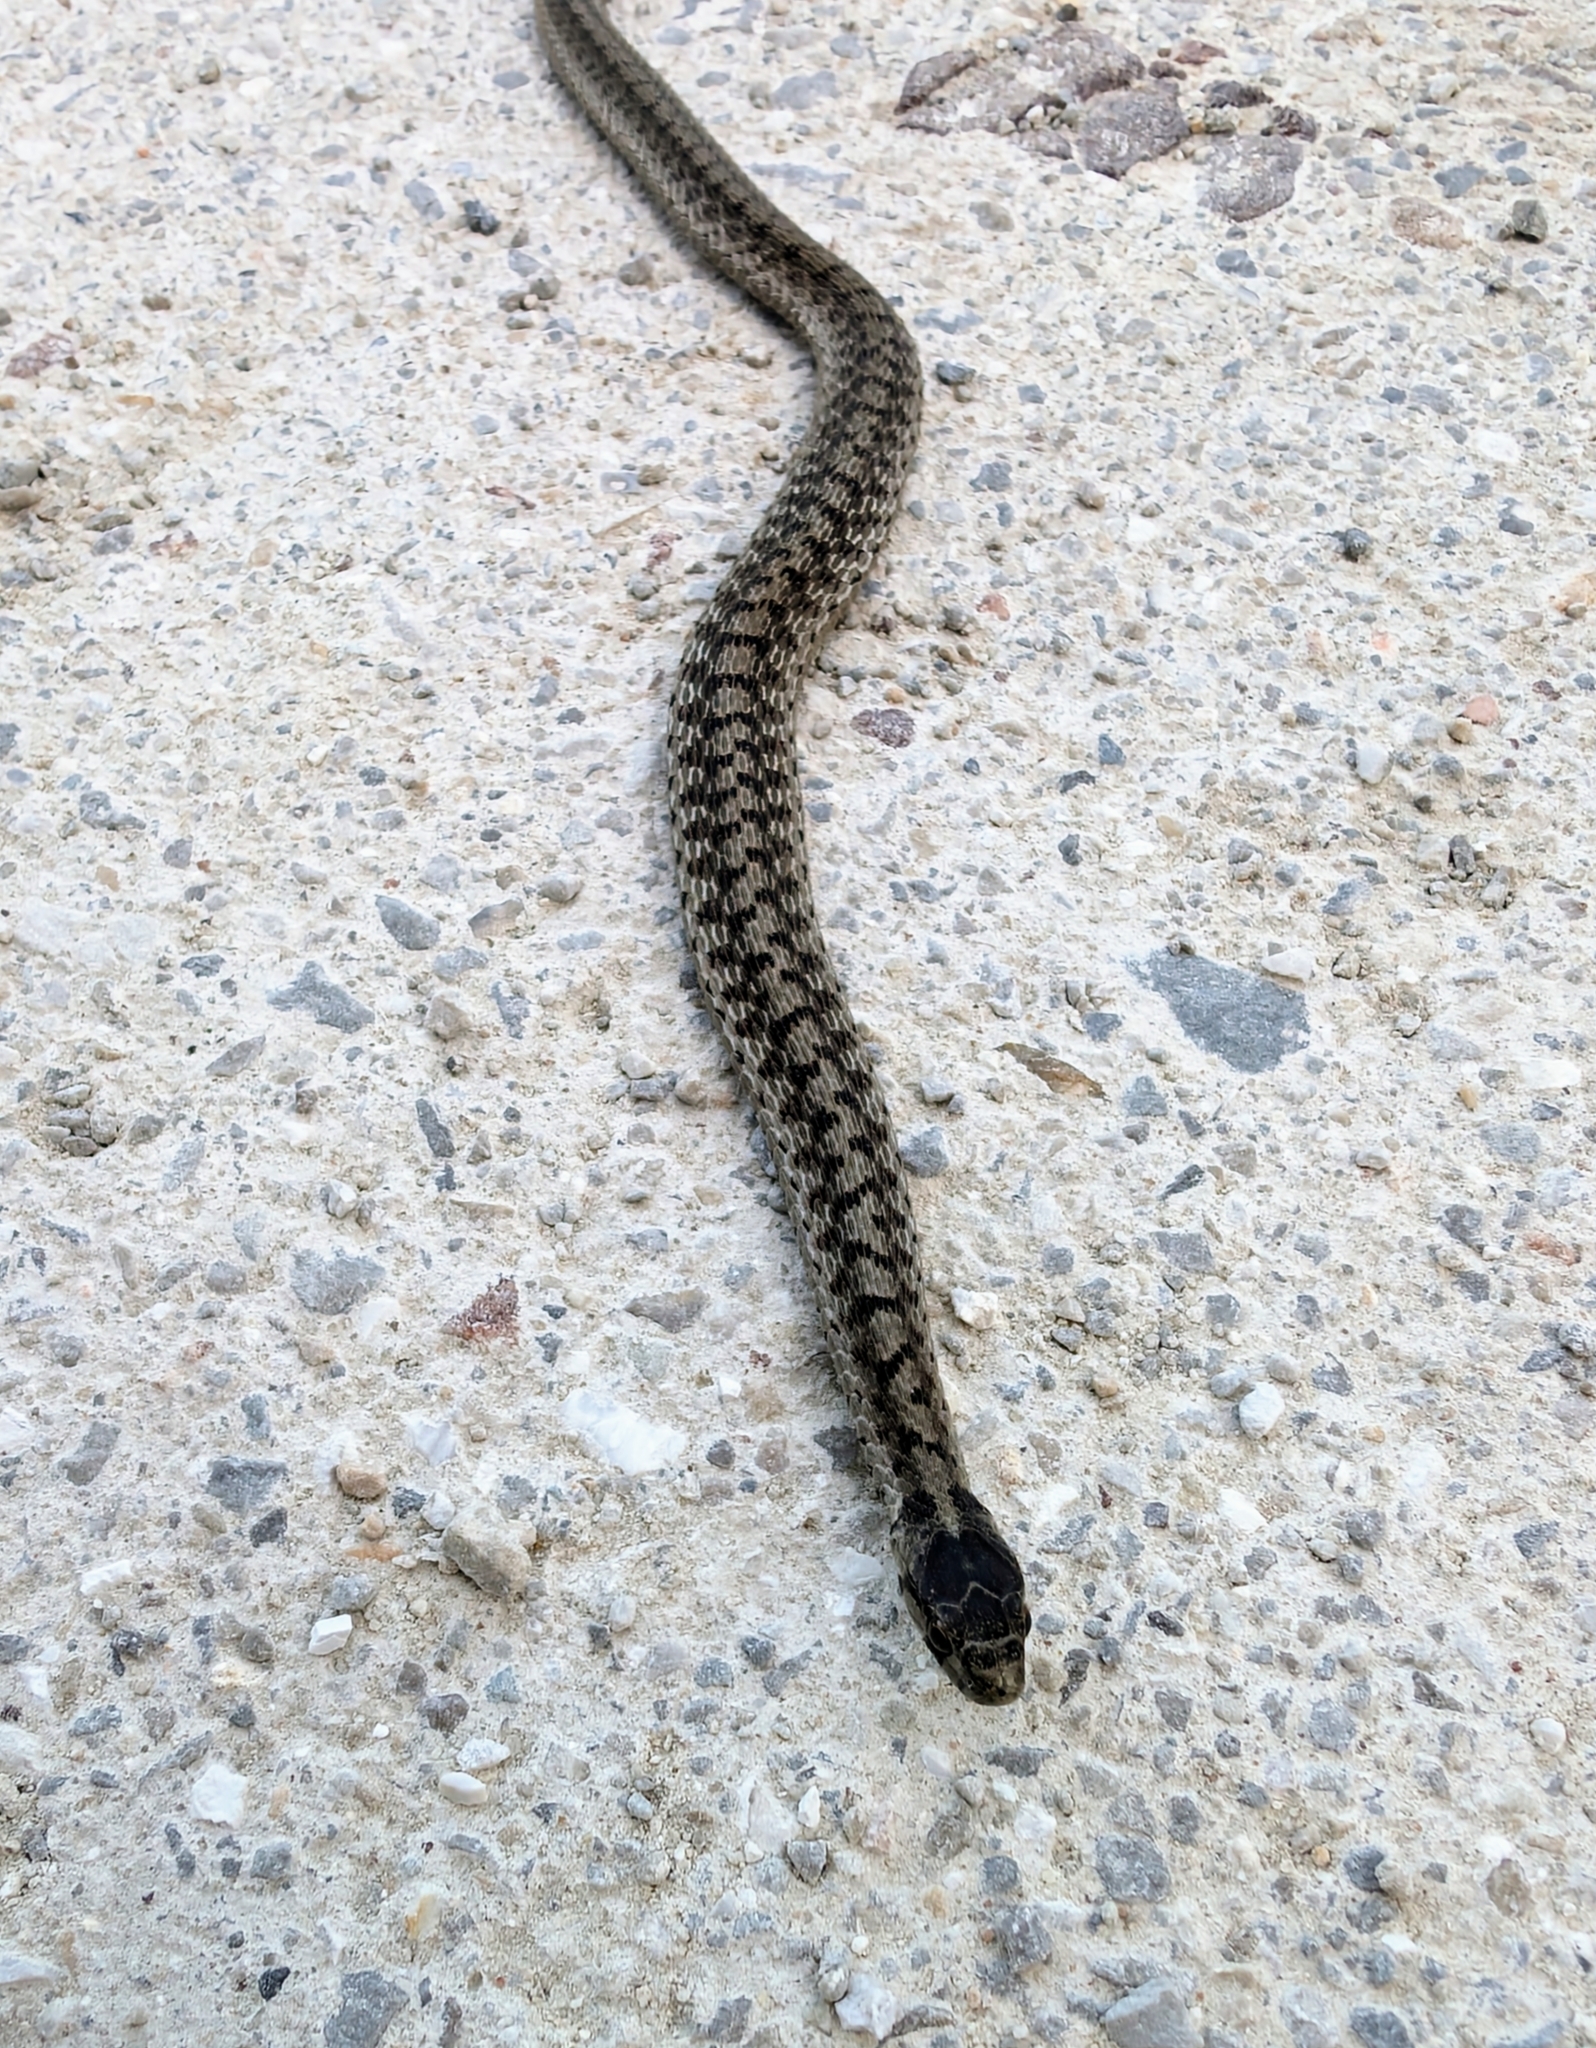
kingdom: Animalia
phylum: Chordata
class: Squamata
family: Colubridae
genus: Storeria
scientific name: Storeria dekayi
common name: (dekay’s) brown snake
